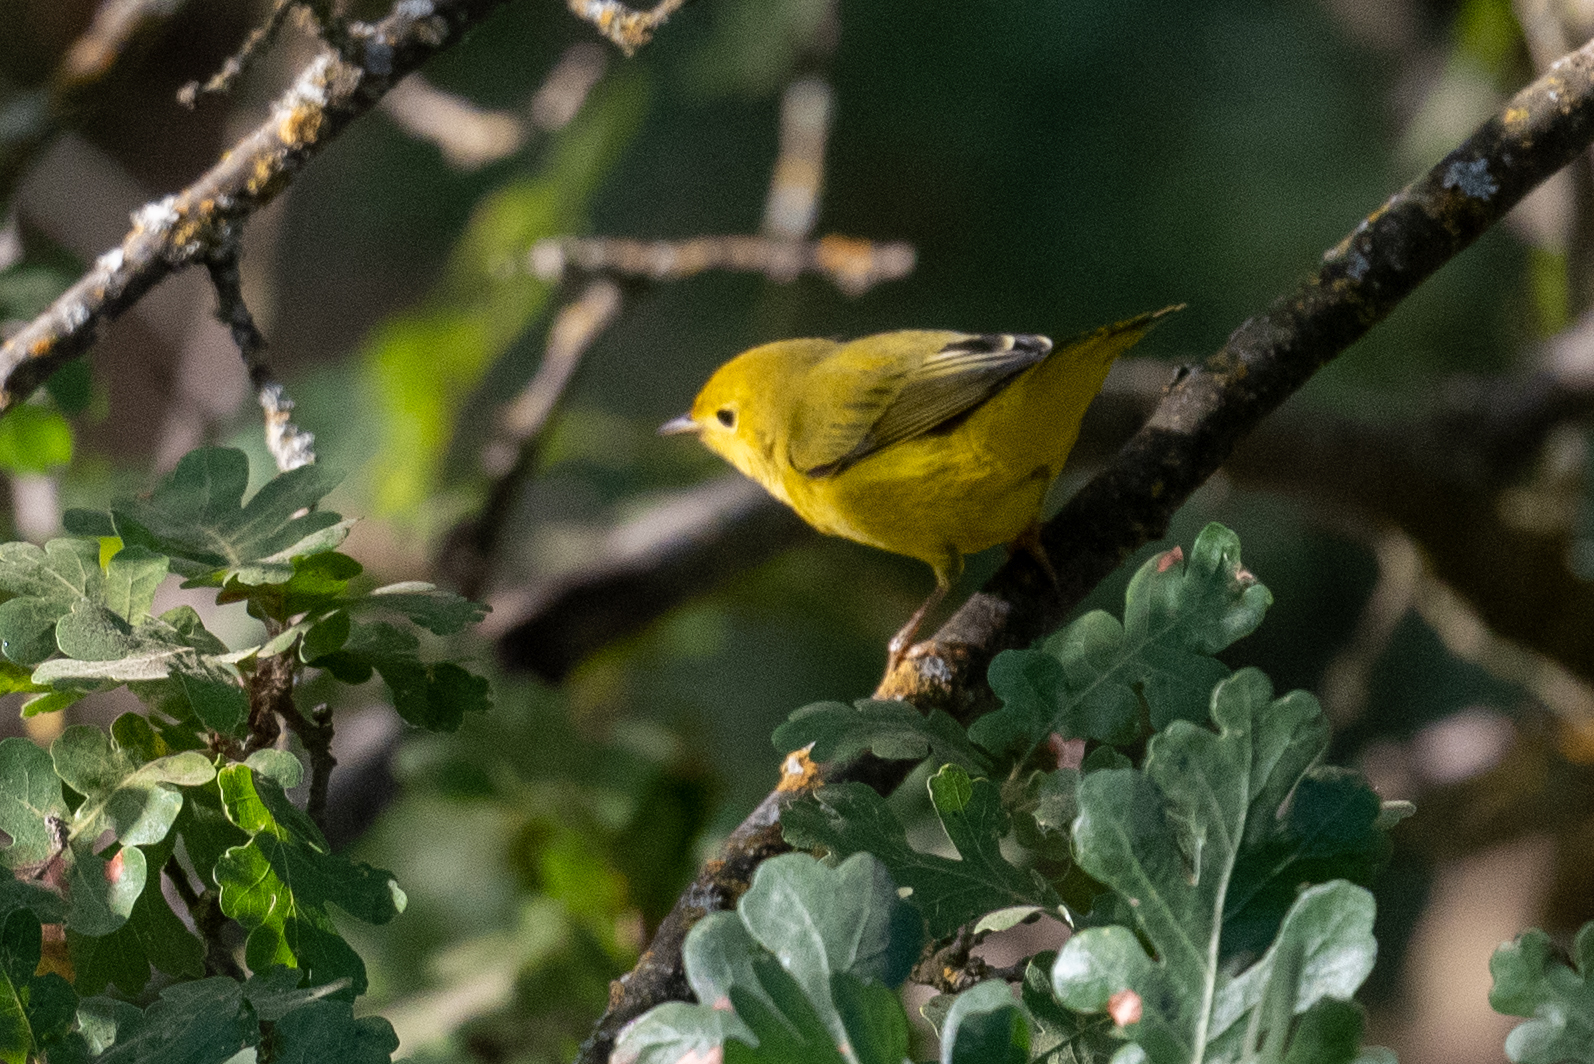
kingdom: Animalia
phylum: Chordata
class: Aves
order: Passeriformes
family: Parulidae
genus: Setophaga
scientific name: Setophaga petechia
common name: Yellow warbler
